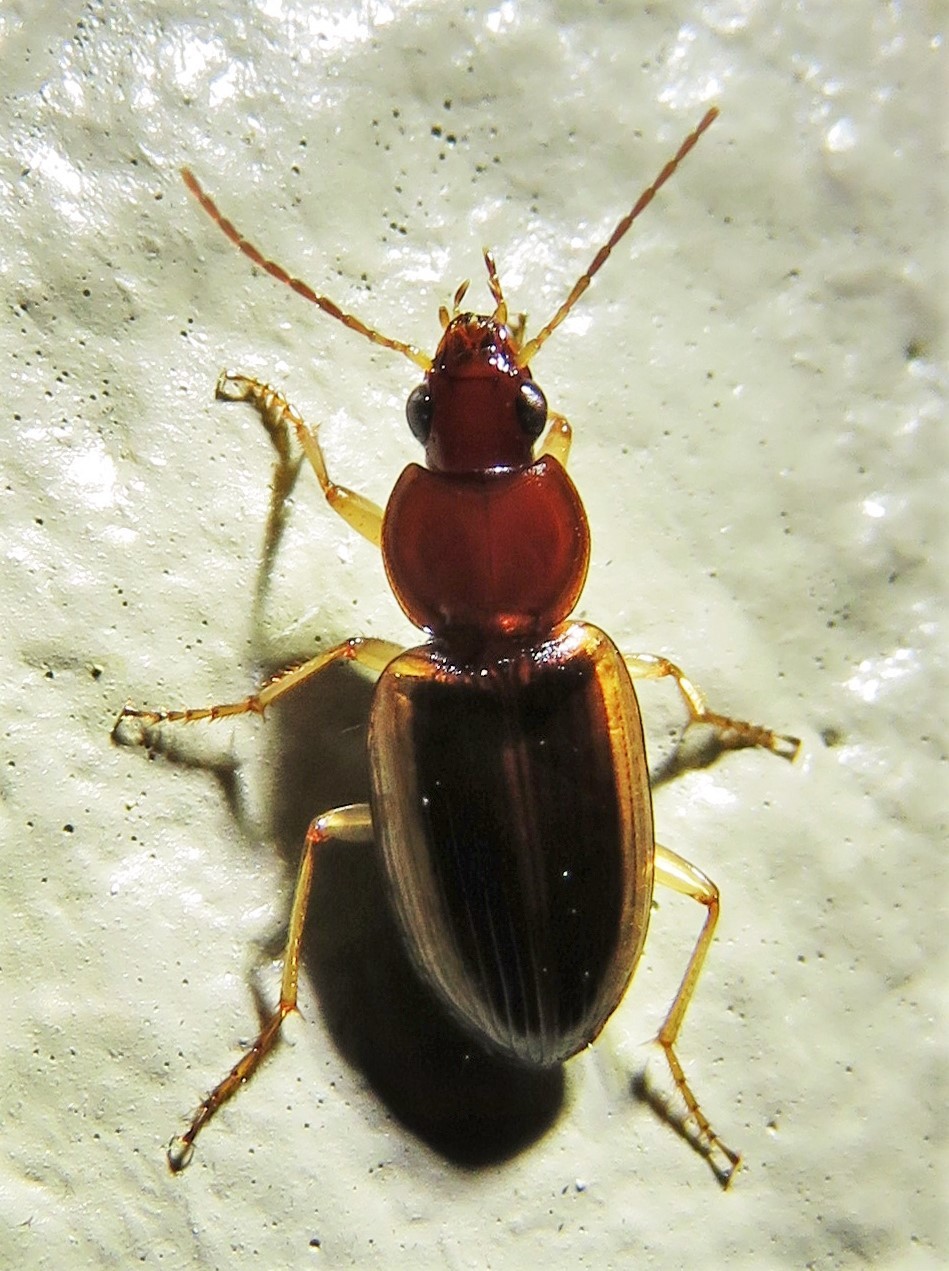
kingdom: Animalia
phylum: Arthropoda
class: Insecta
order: Coleoptera
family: Carabidae
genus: Agonum
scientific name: Agonum pallipes
